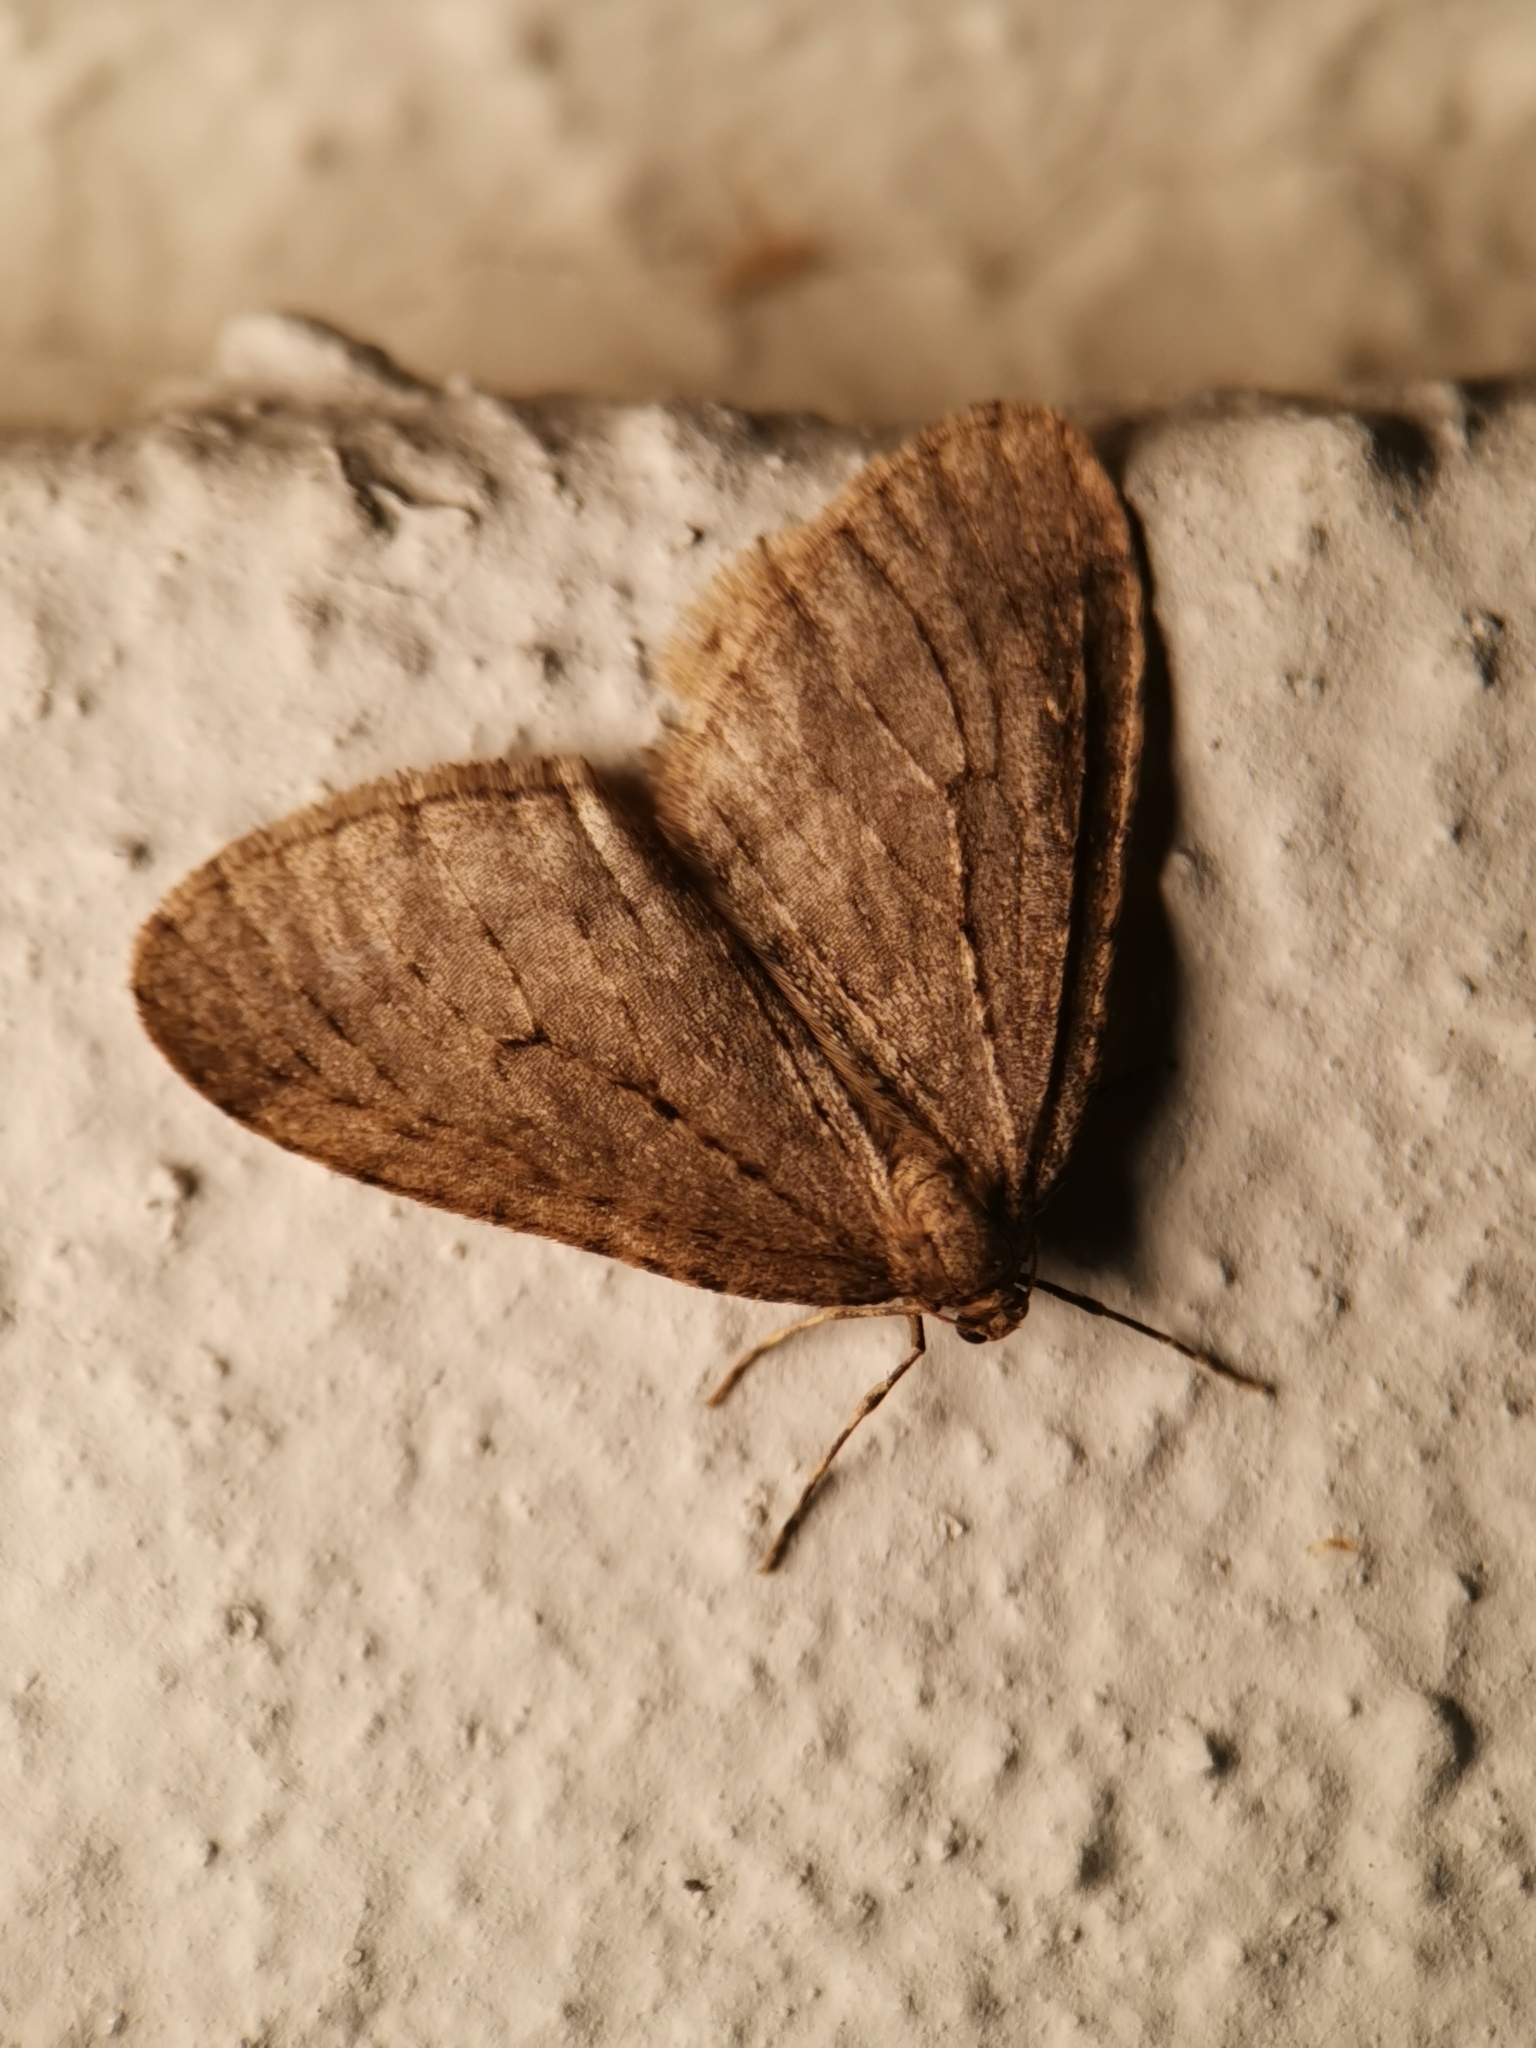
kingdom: Animalia
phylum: Arthropoda
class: Insecta
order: Lepidoptera
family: Geometridae
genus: Operophtera
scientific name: Operophtera brumata
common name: Winter moth
